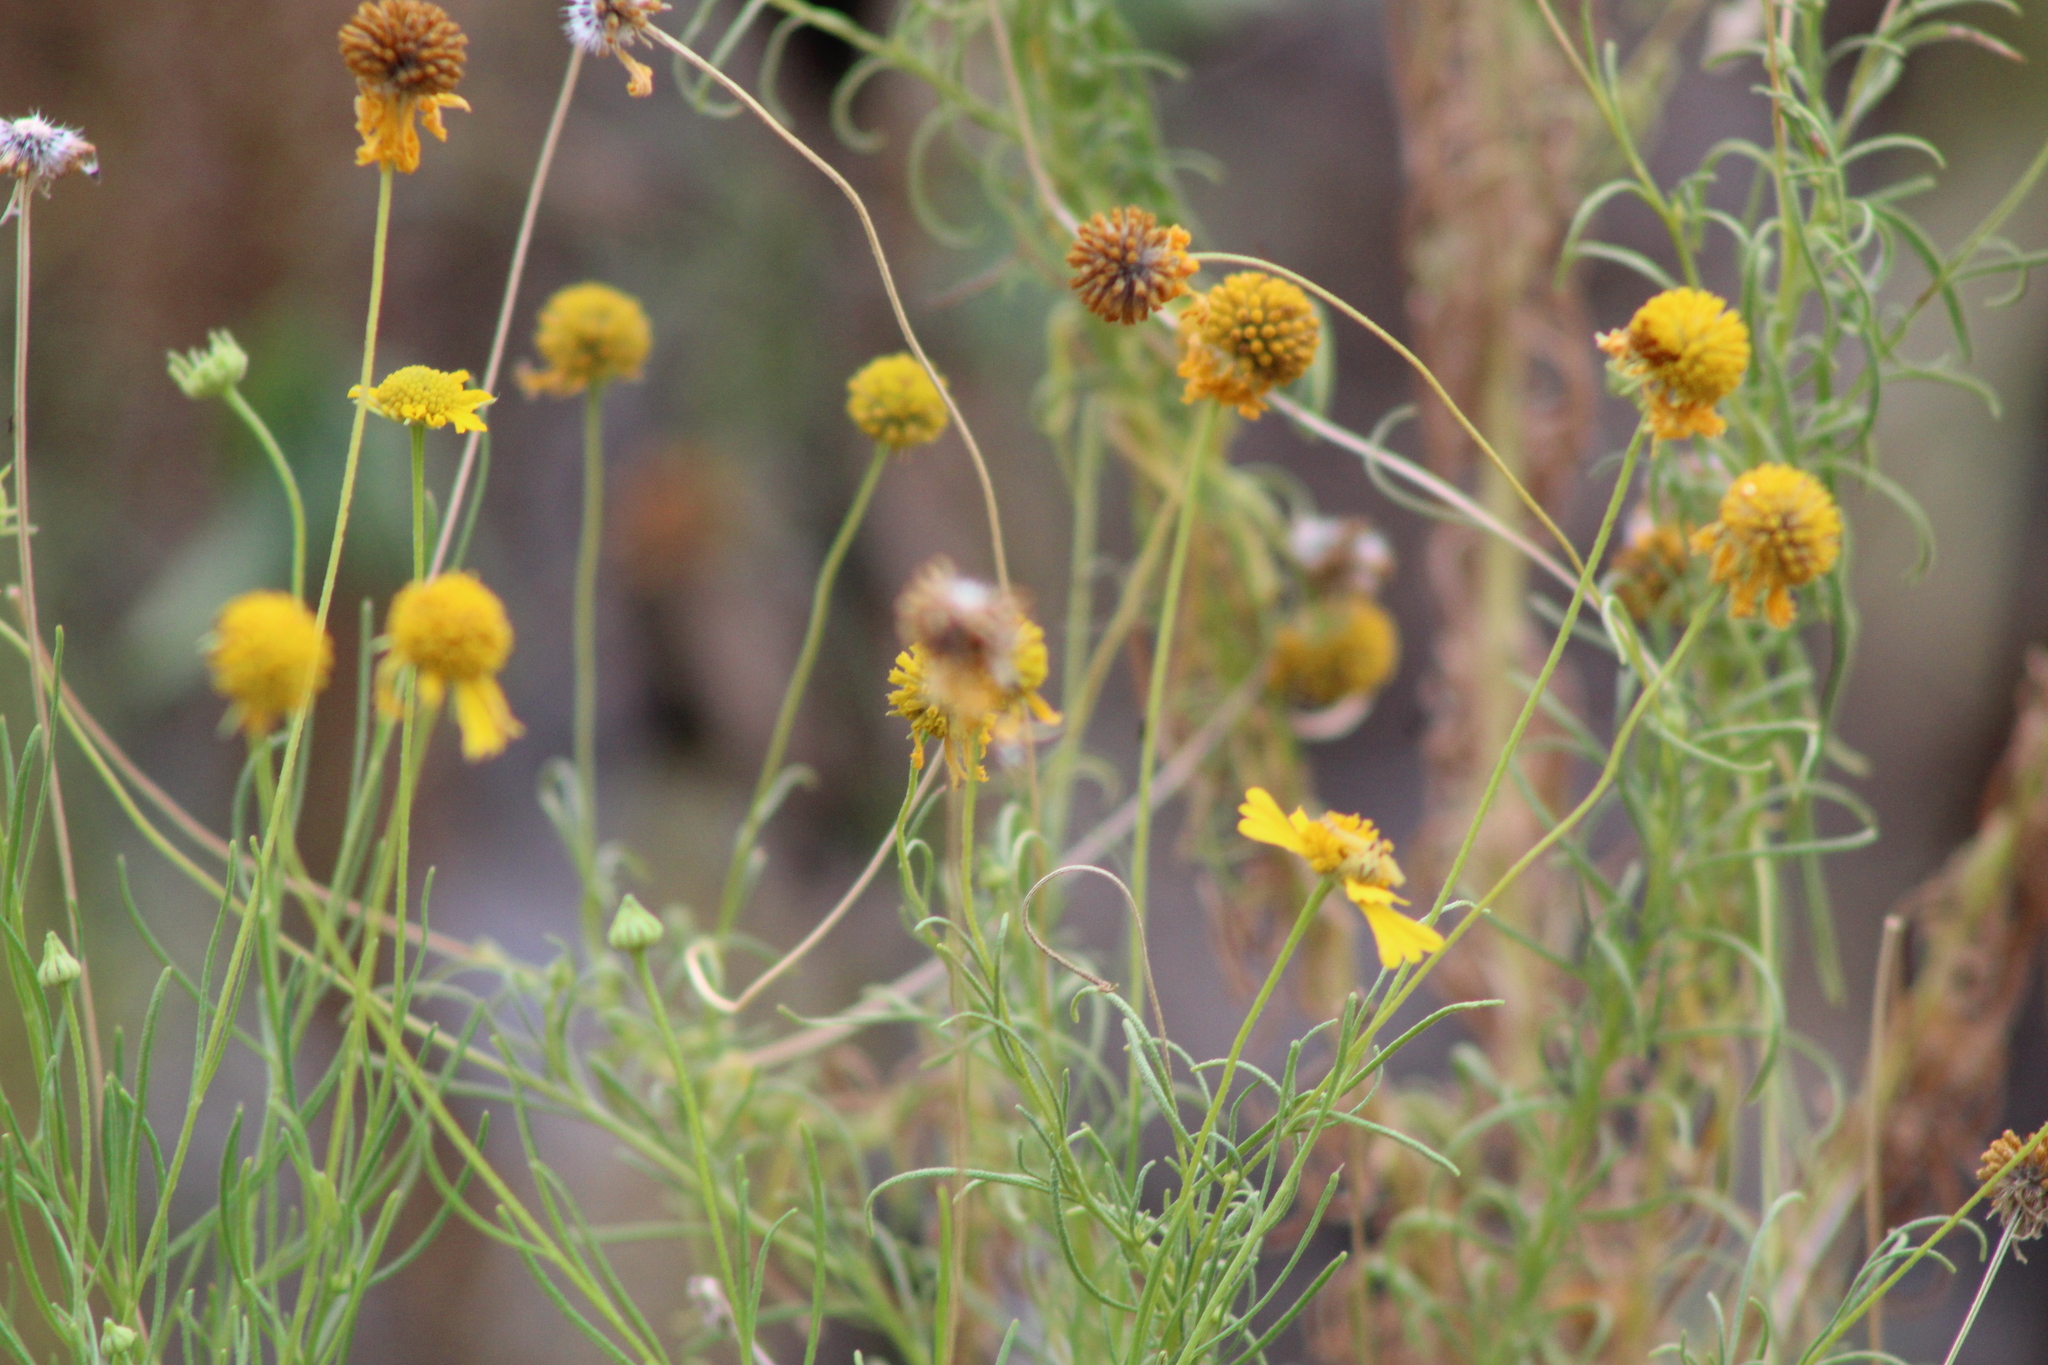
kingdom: Plantae
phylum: Tracheophyta
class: Magnoliopsida
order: Asterales
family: Asteraceae
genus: Helenium
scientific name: Helenium amarum
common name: Bitter sneezeweed
